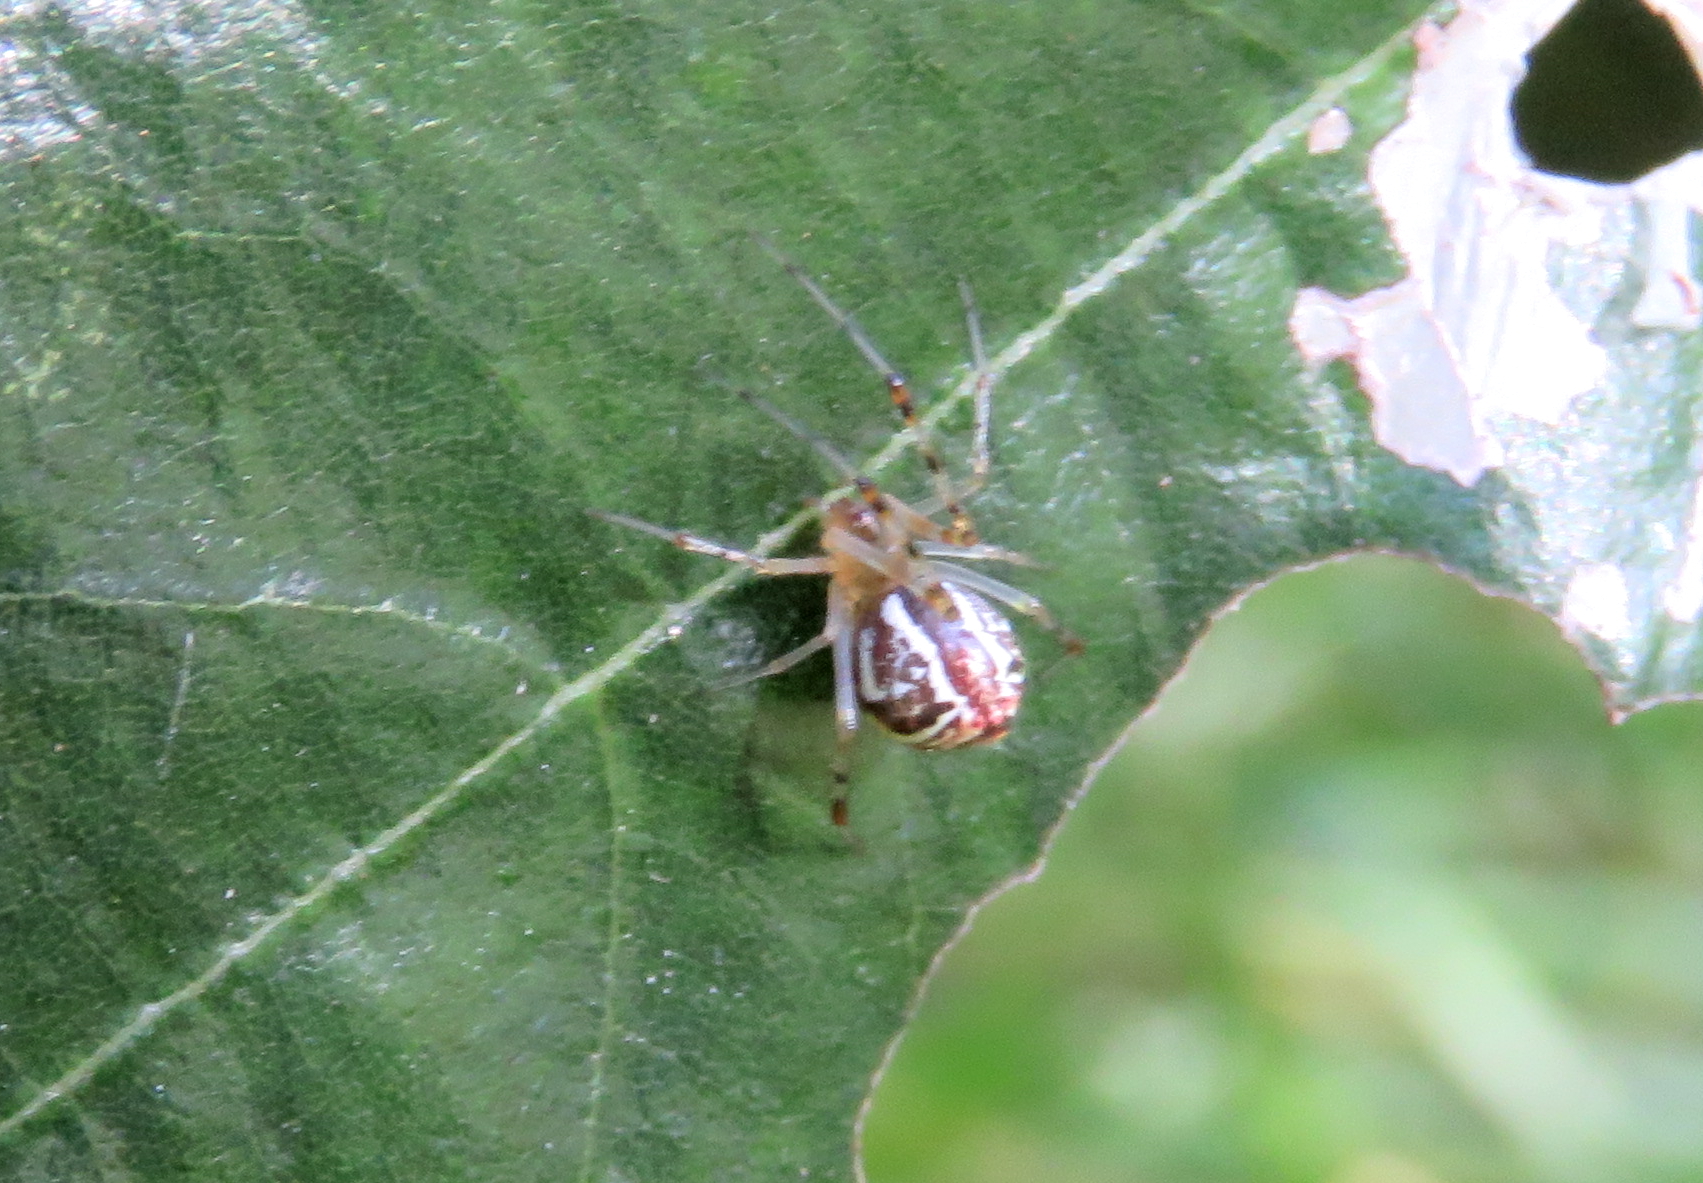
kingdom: Animalia
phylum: Arthropoda
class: Arachnida
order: Araneae
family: Theridiidae
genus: Theridion
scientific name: Theridion pyramidale
